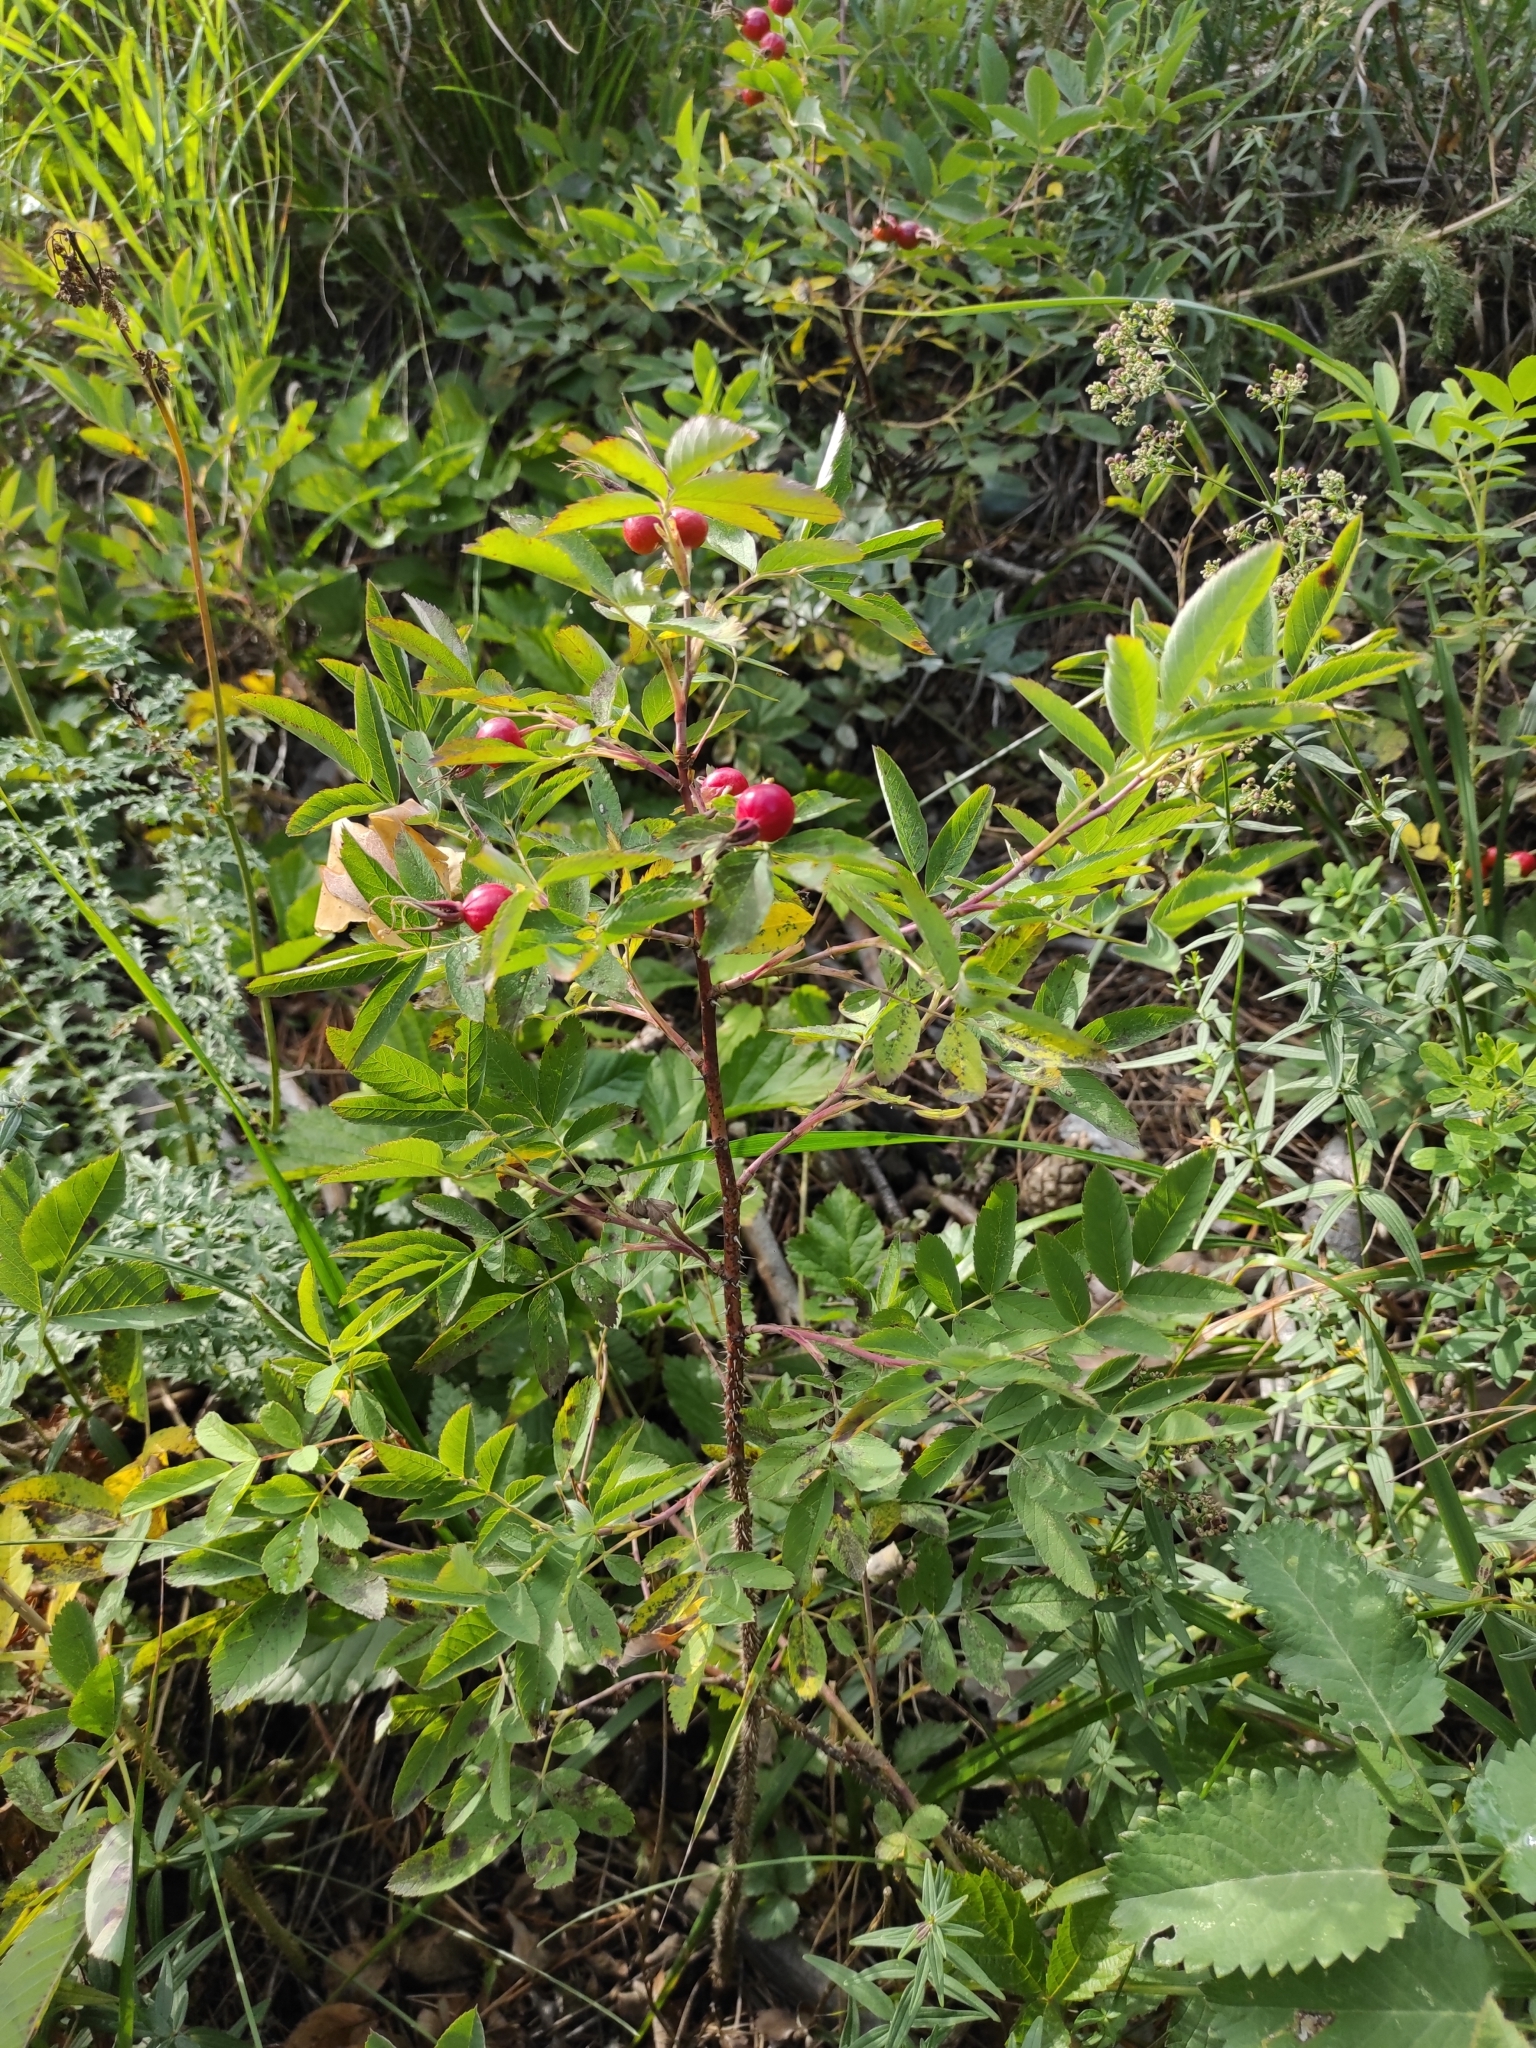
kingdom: Plantae
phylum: Tracheophyta
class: Magnoliopsida
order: Rosales
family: Rosaceae
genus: Rosa
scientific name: Rosa glabrifolia
